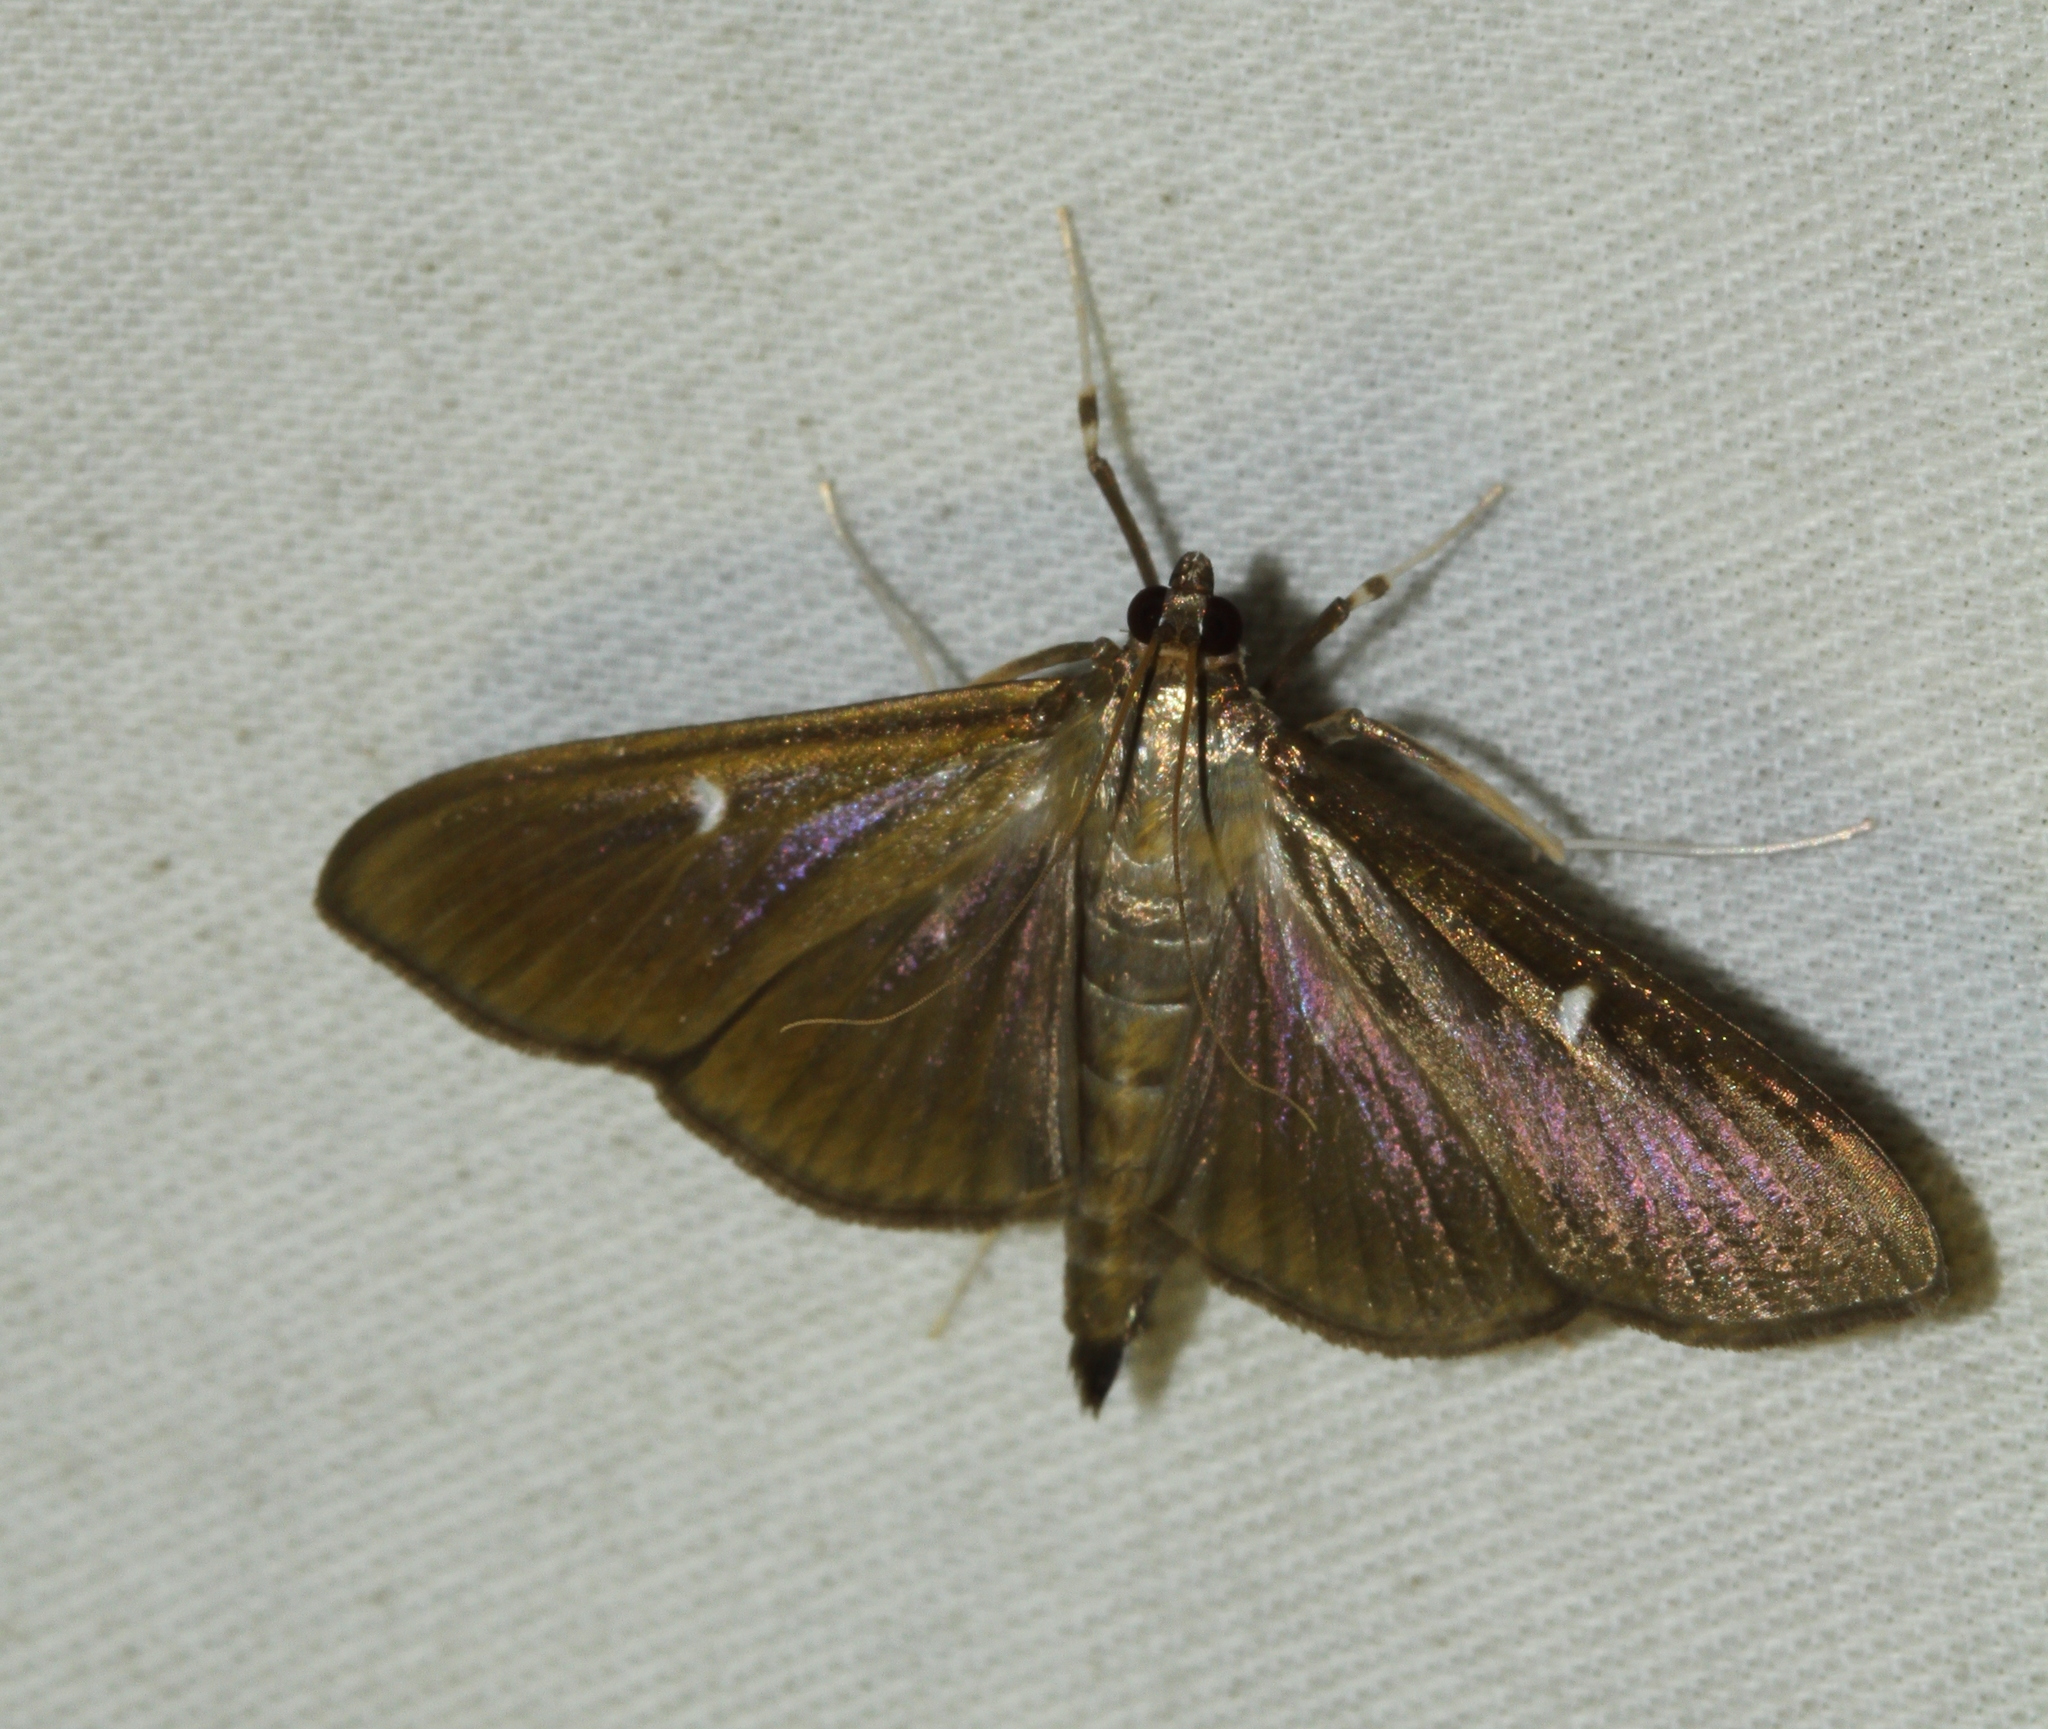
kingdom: Animalia
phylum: Arthropoda
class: Insecta
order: Lepidoptera
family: Crambidae
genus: Cydalima
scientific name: Cydalima perspectalis
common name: Box tree moth
